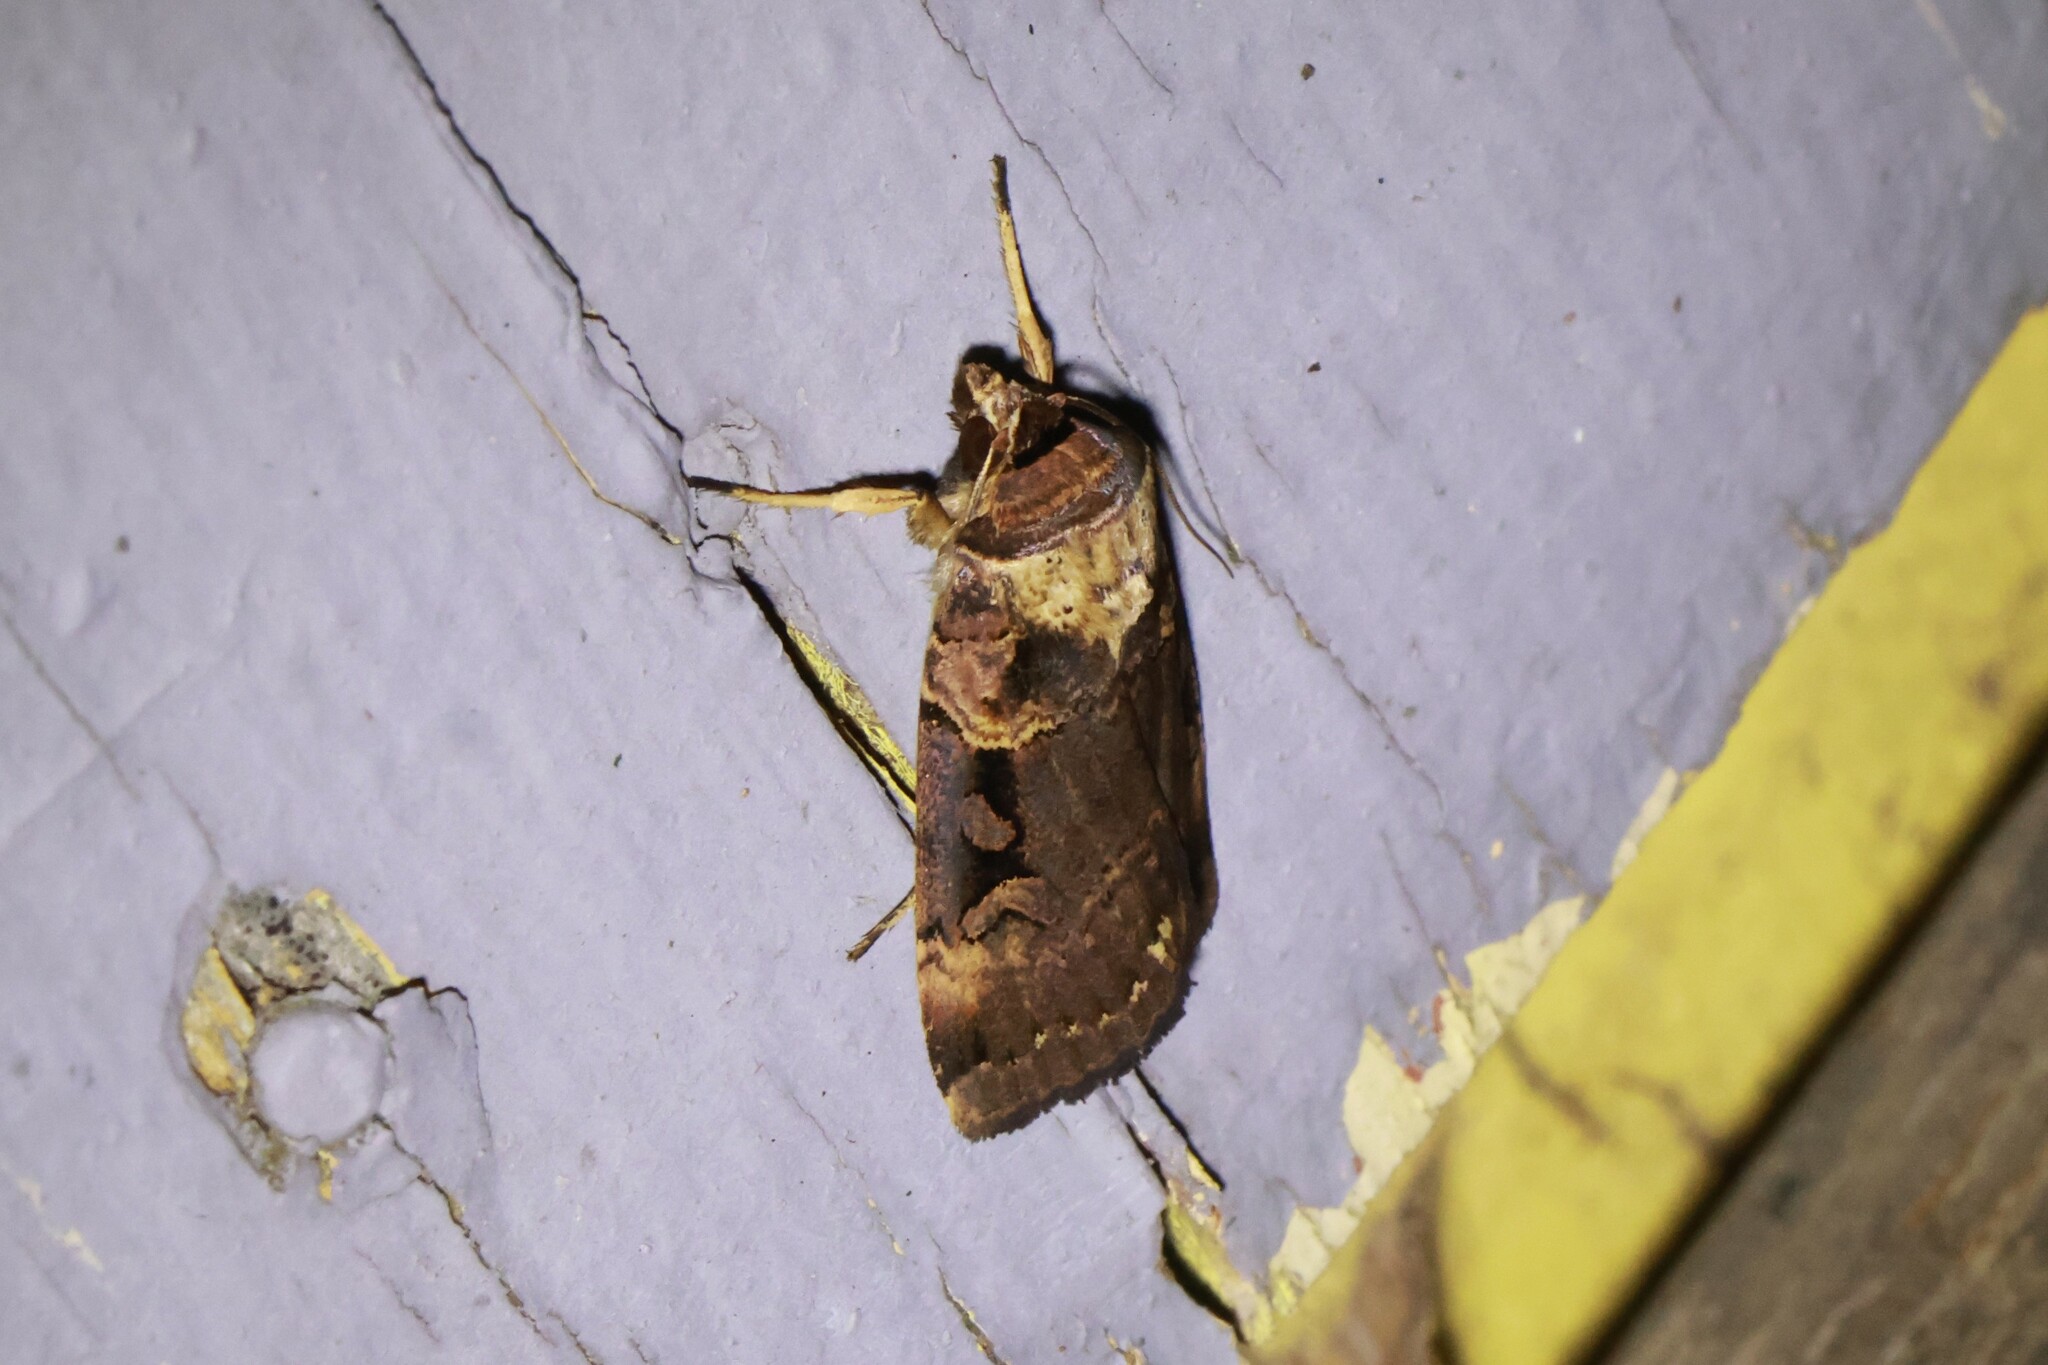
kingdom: Animalia
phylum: Arthropoda
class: Insecta
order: Lepidoptera
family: Noctuidae
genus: Pseudohermonassa
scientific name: Pseudohermonassa bicarnea
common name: Pink spotted dart
